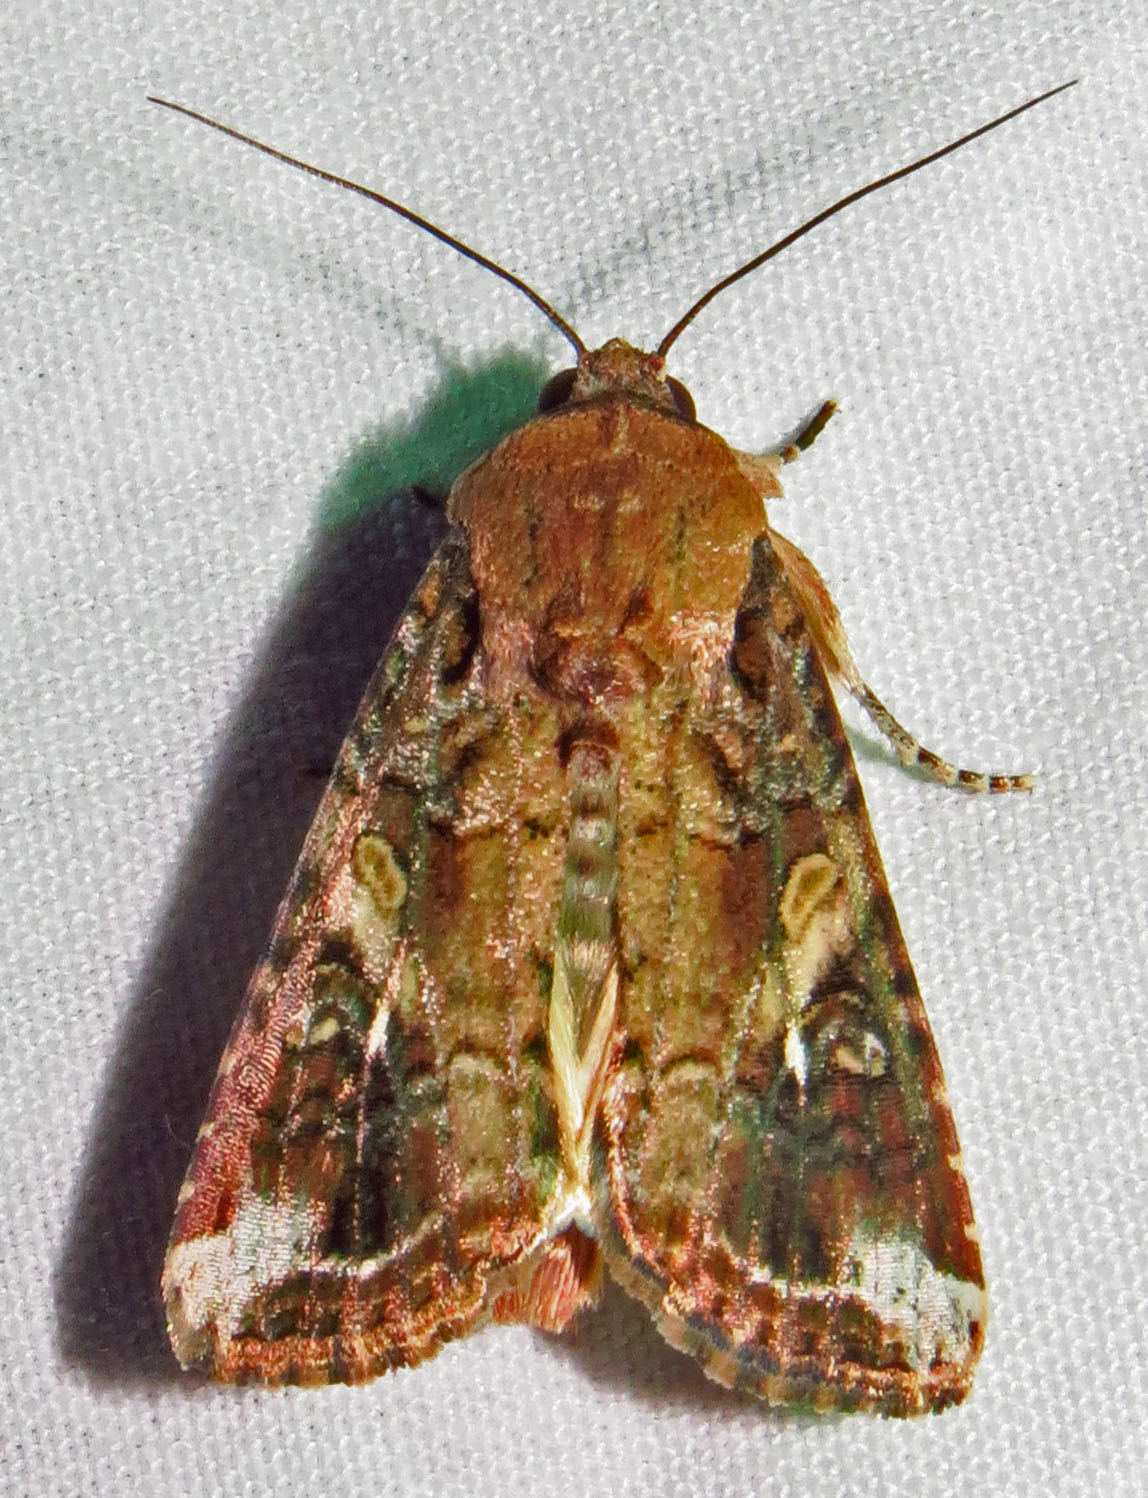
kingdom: Animalia
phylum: Arthropoda
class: Insecta
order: Lepidoptera
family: Noctuidae
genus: Spodoptera
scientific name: Spodoptera frugiperda
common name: Fall armyworm
